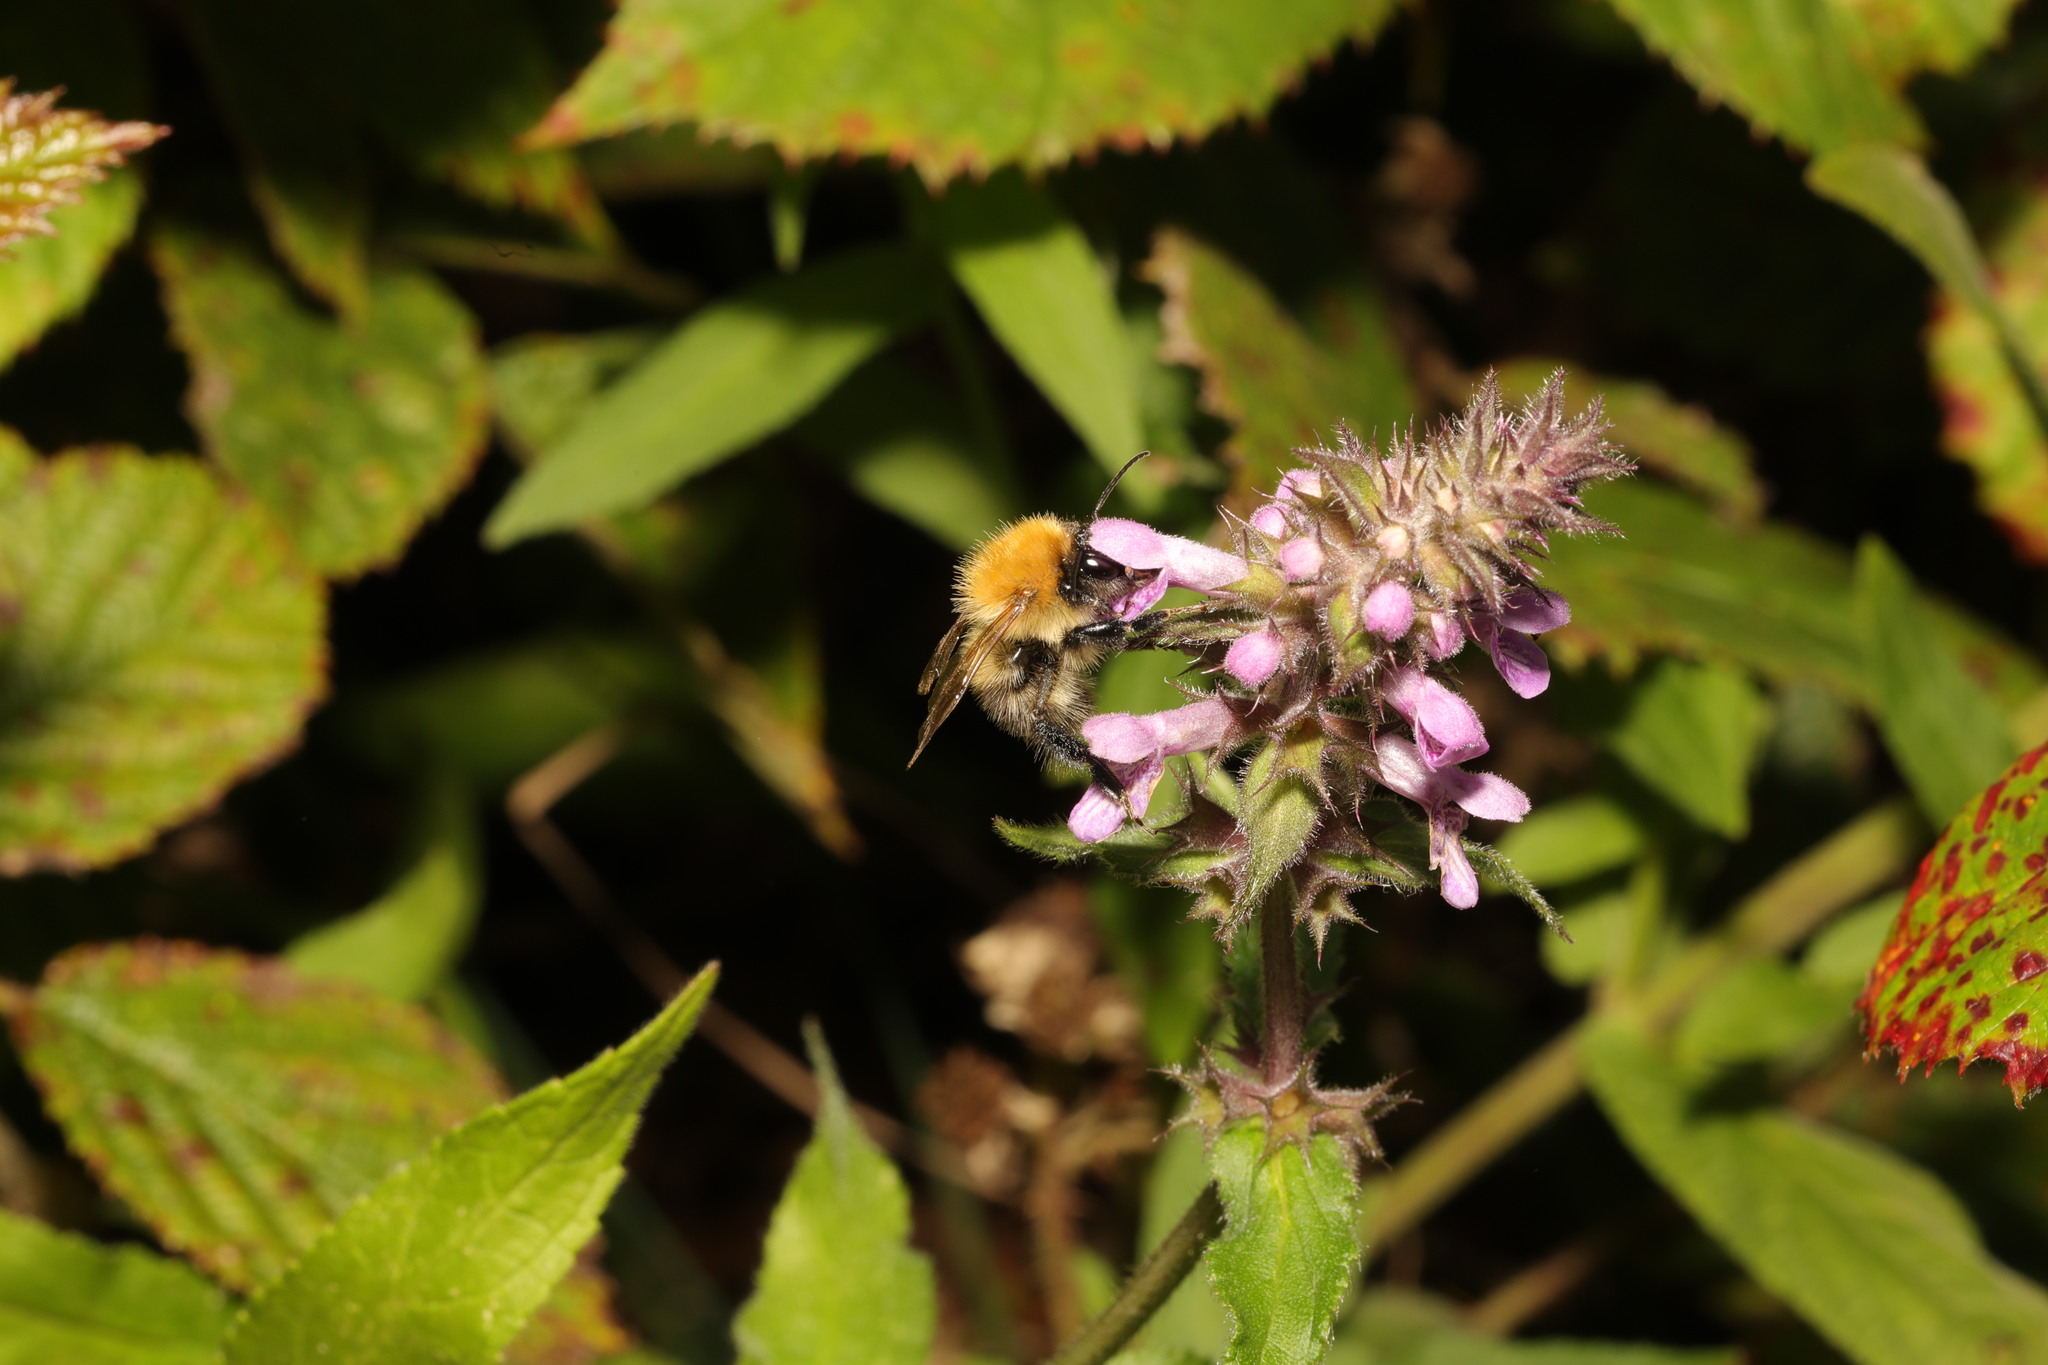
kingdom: Animalia
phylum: Arthropoda
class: Insecta
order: Hymenoptera
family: Apidae
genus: Bombus
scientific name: Bombus pascuorum
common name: Common carder bee
